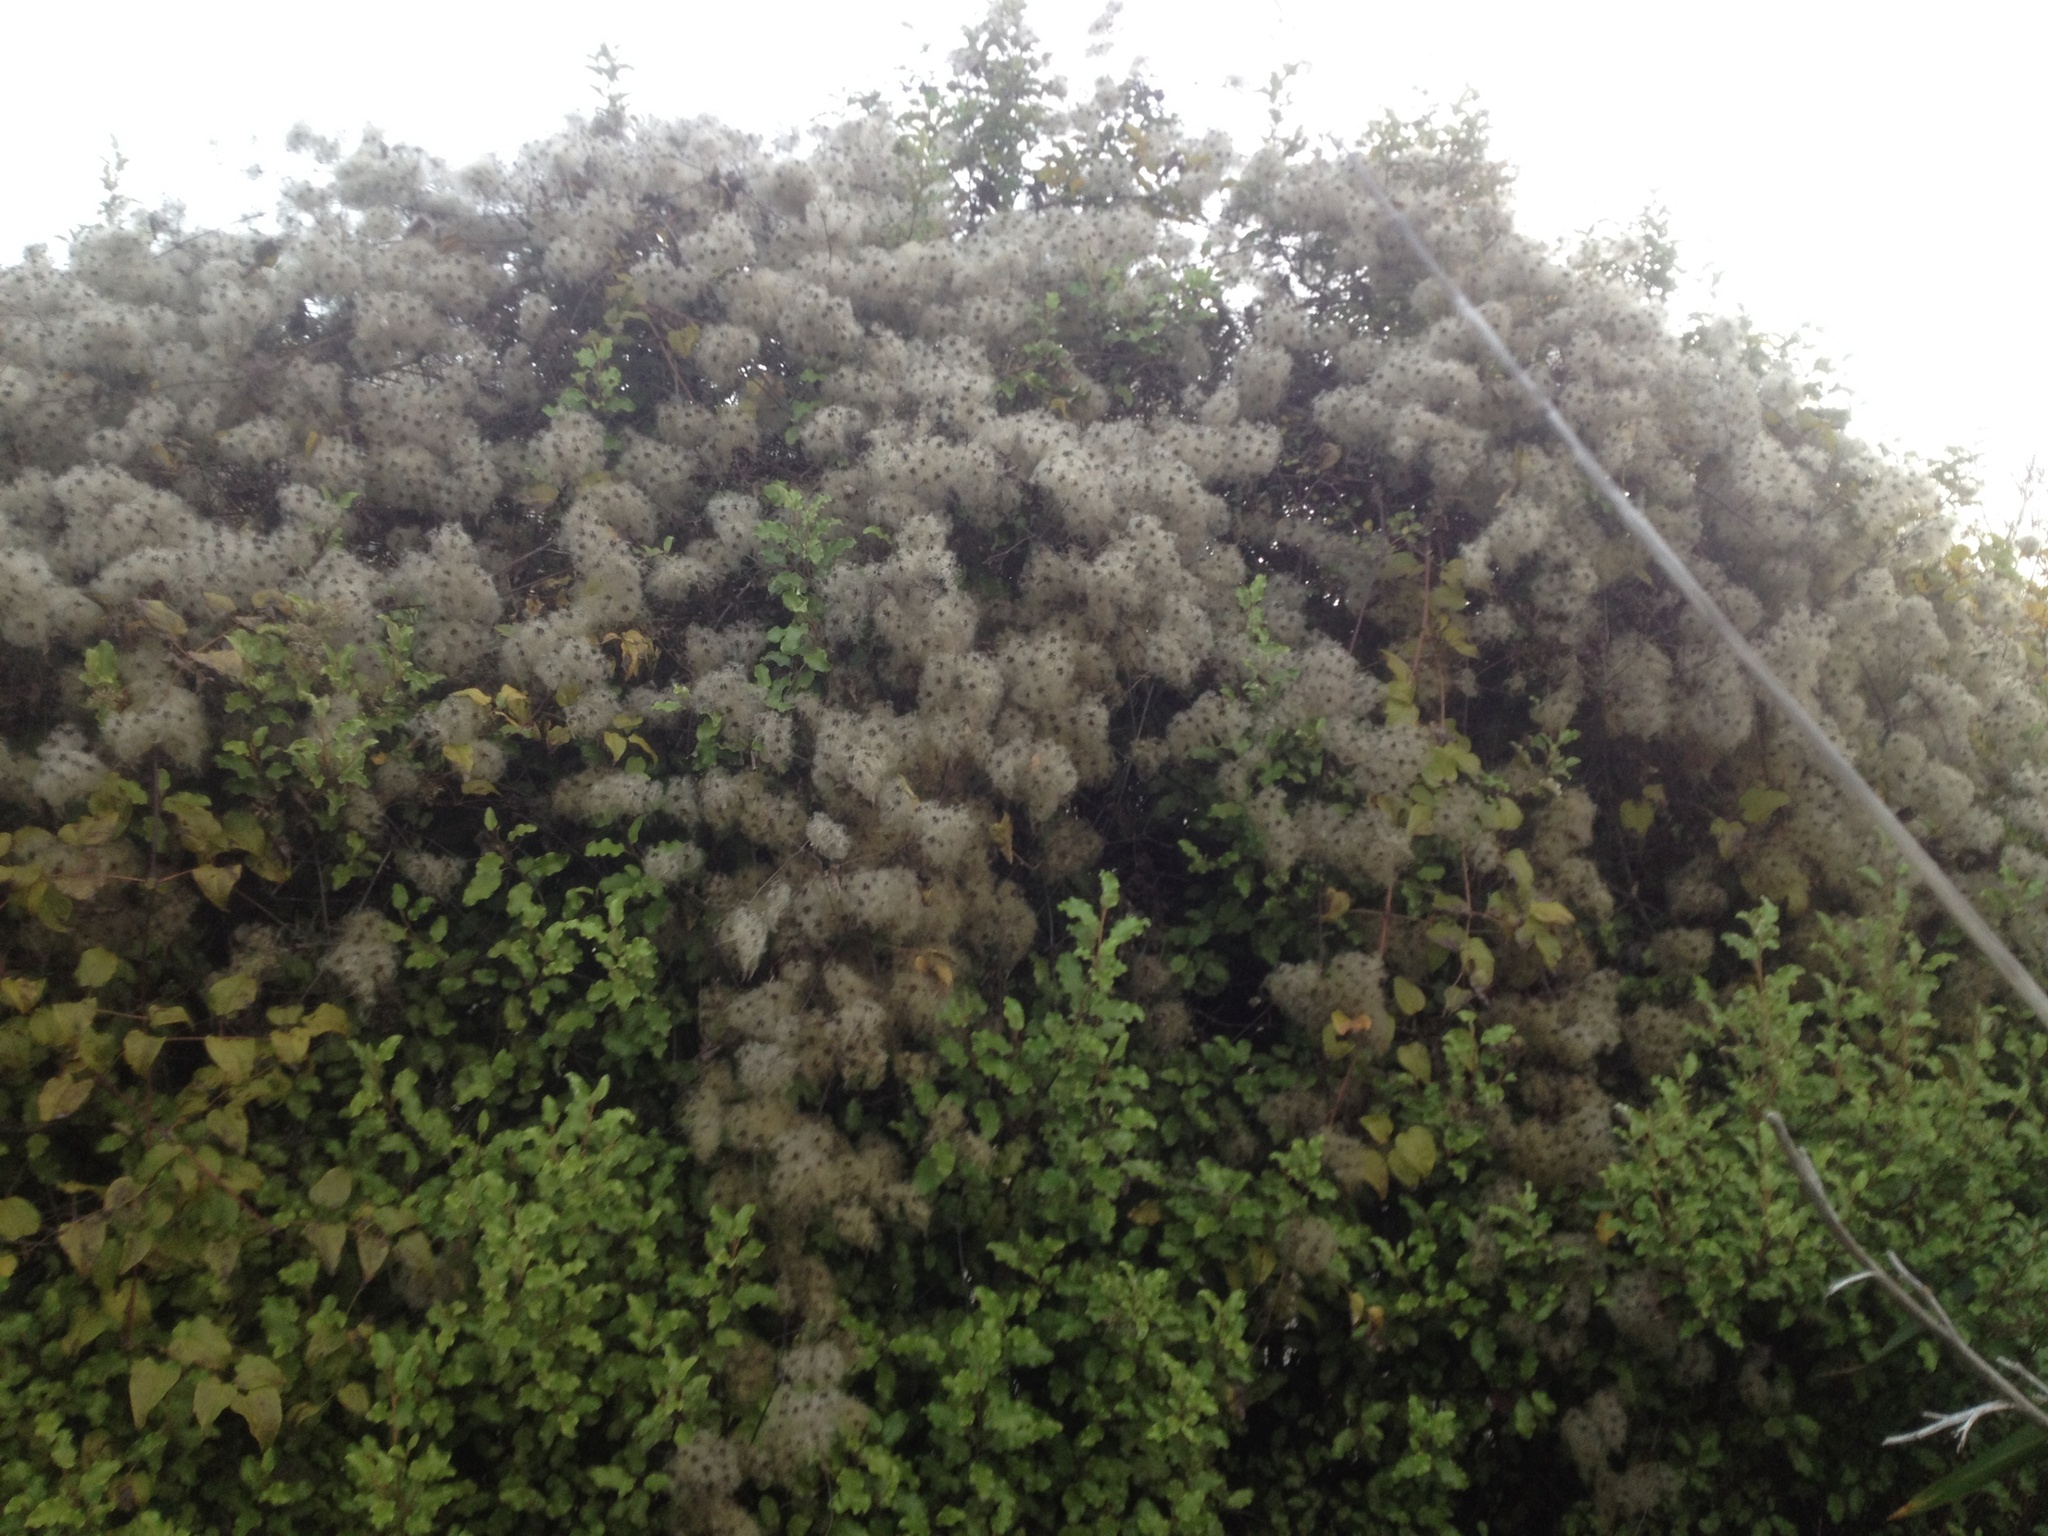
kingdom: Plantae
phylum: Tracheophyta
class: Magnoliopsida
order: Ranunculales
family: Ranunculaceae
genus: Clematis
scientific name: Clematis vitalba
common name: Evergreen clematis
